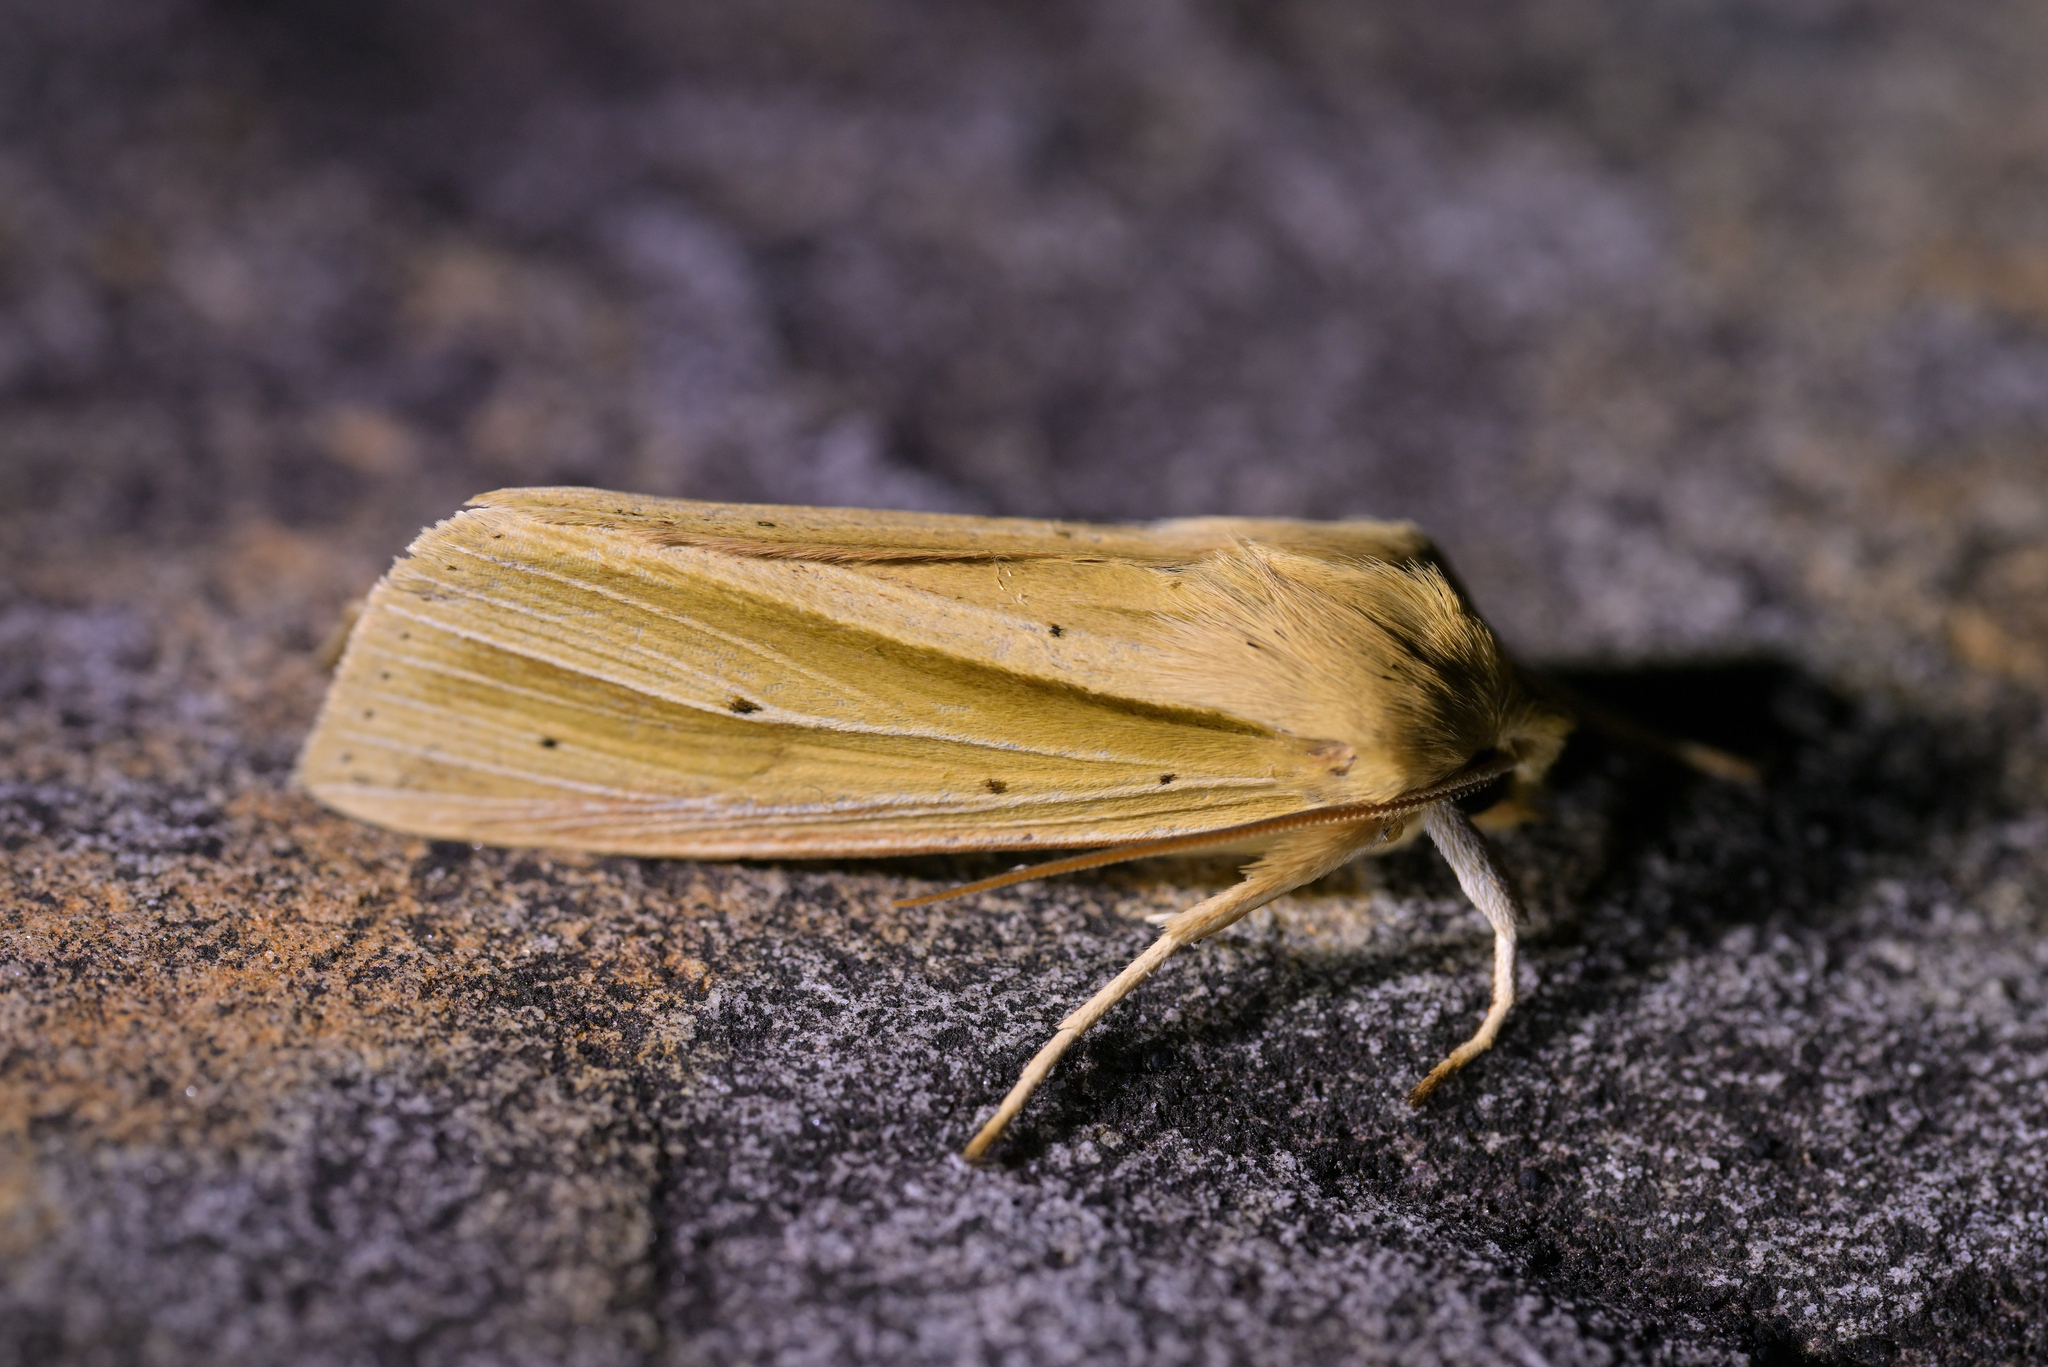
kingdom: Animalia
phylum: Arthropoda
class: Insecta
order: Lepidoptera
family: Noctuidae
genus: Ichneutica
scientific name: Ichneutica sulcana
